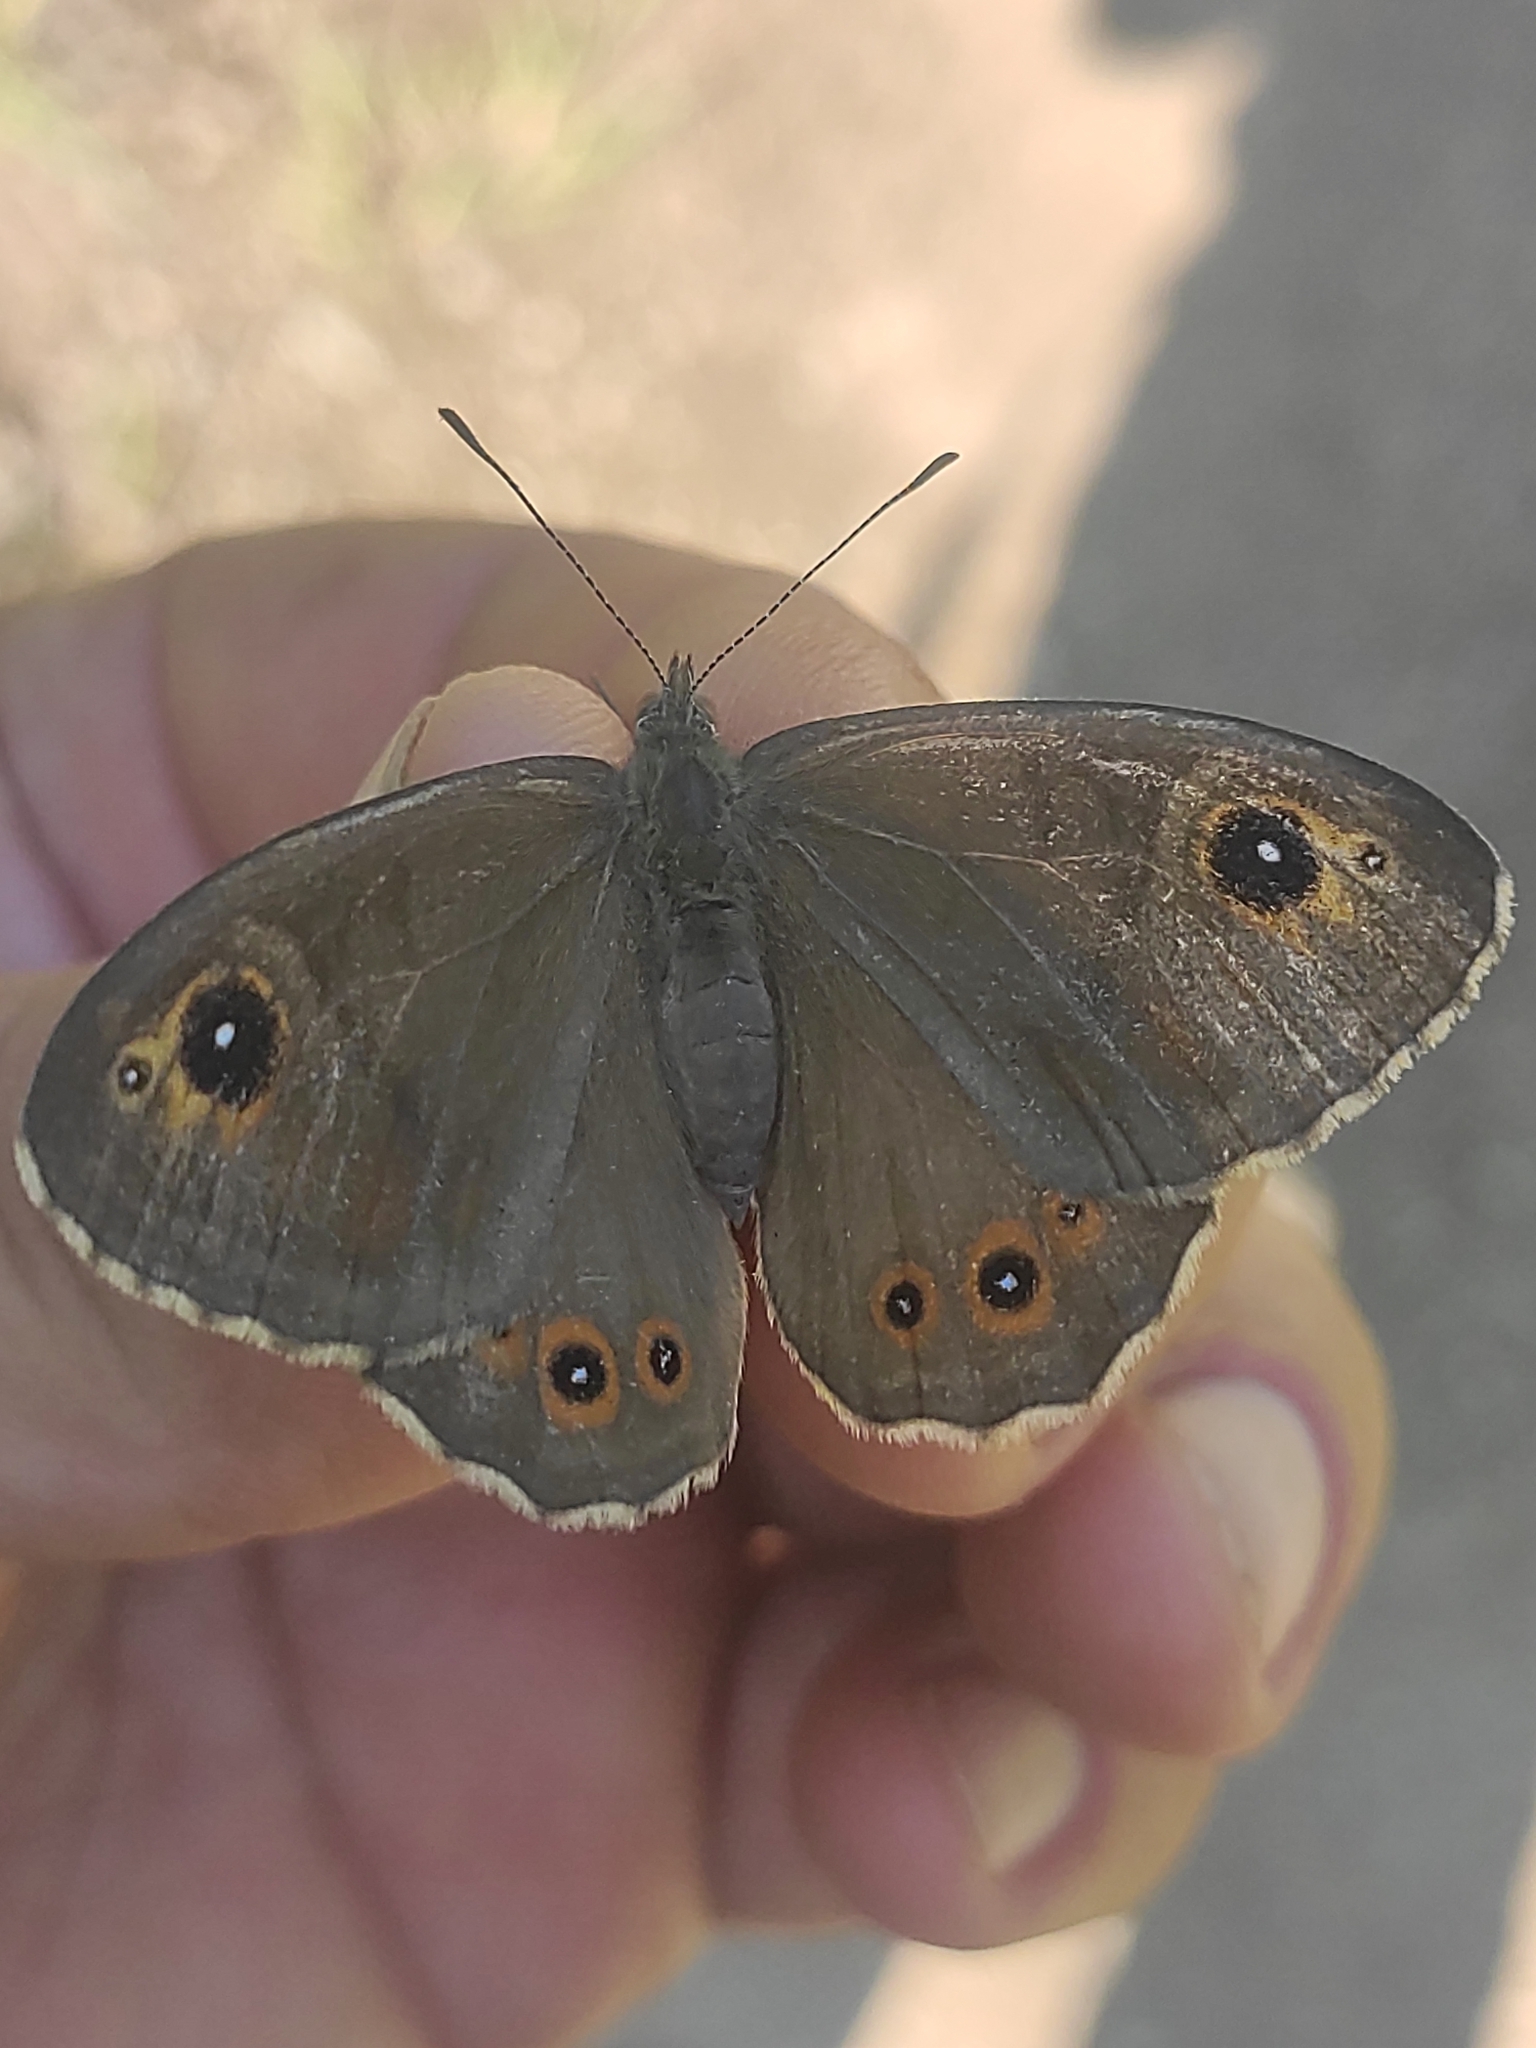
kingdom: Animalia
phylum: Arthropoda
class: Insecta
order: Lepidoptera
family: Nymphalidae
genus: Pararge
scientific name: Pararge Lasiommata maera
